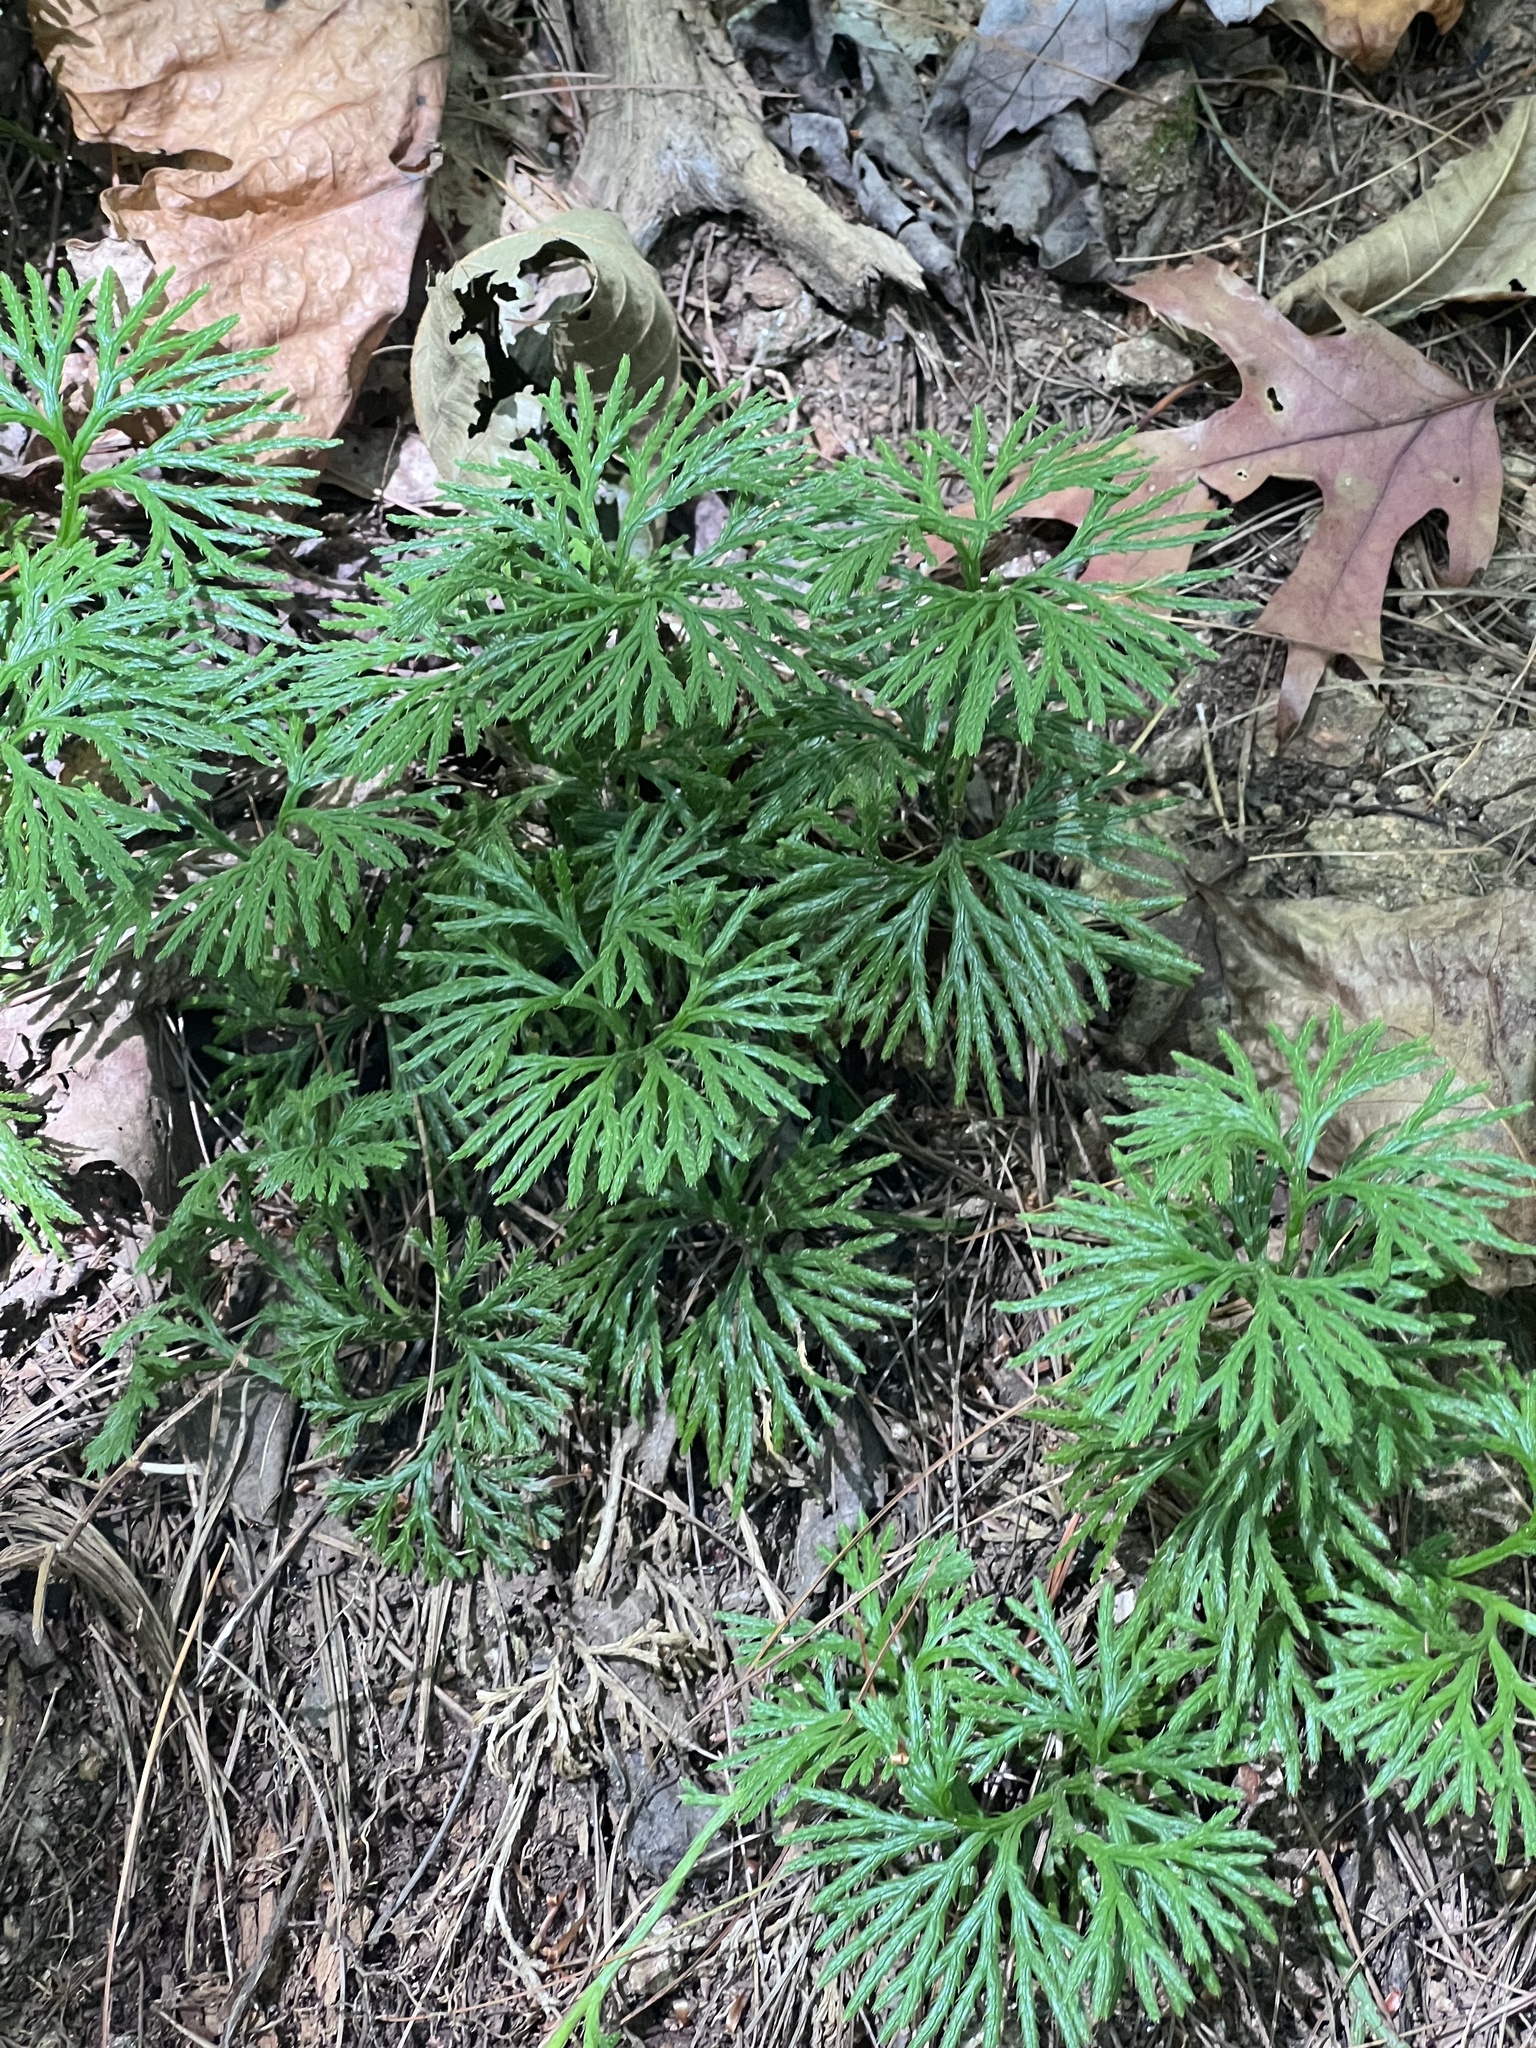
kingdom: Plantae
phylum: Tracheophyta
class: Lycopodiopsida
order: Lycopodiales
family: Lycopodiaceae
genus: Diphasiastrum
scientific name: Diphasiastrum digitatum
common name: Southern running-pine
